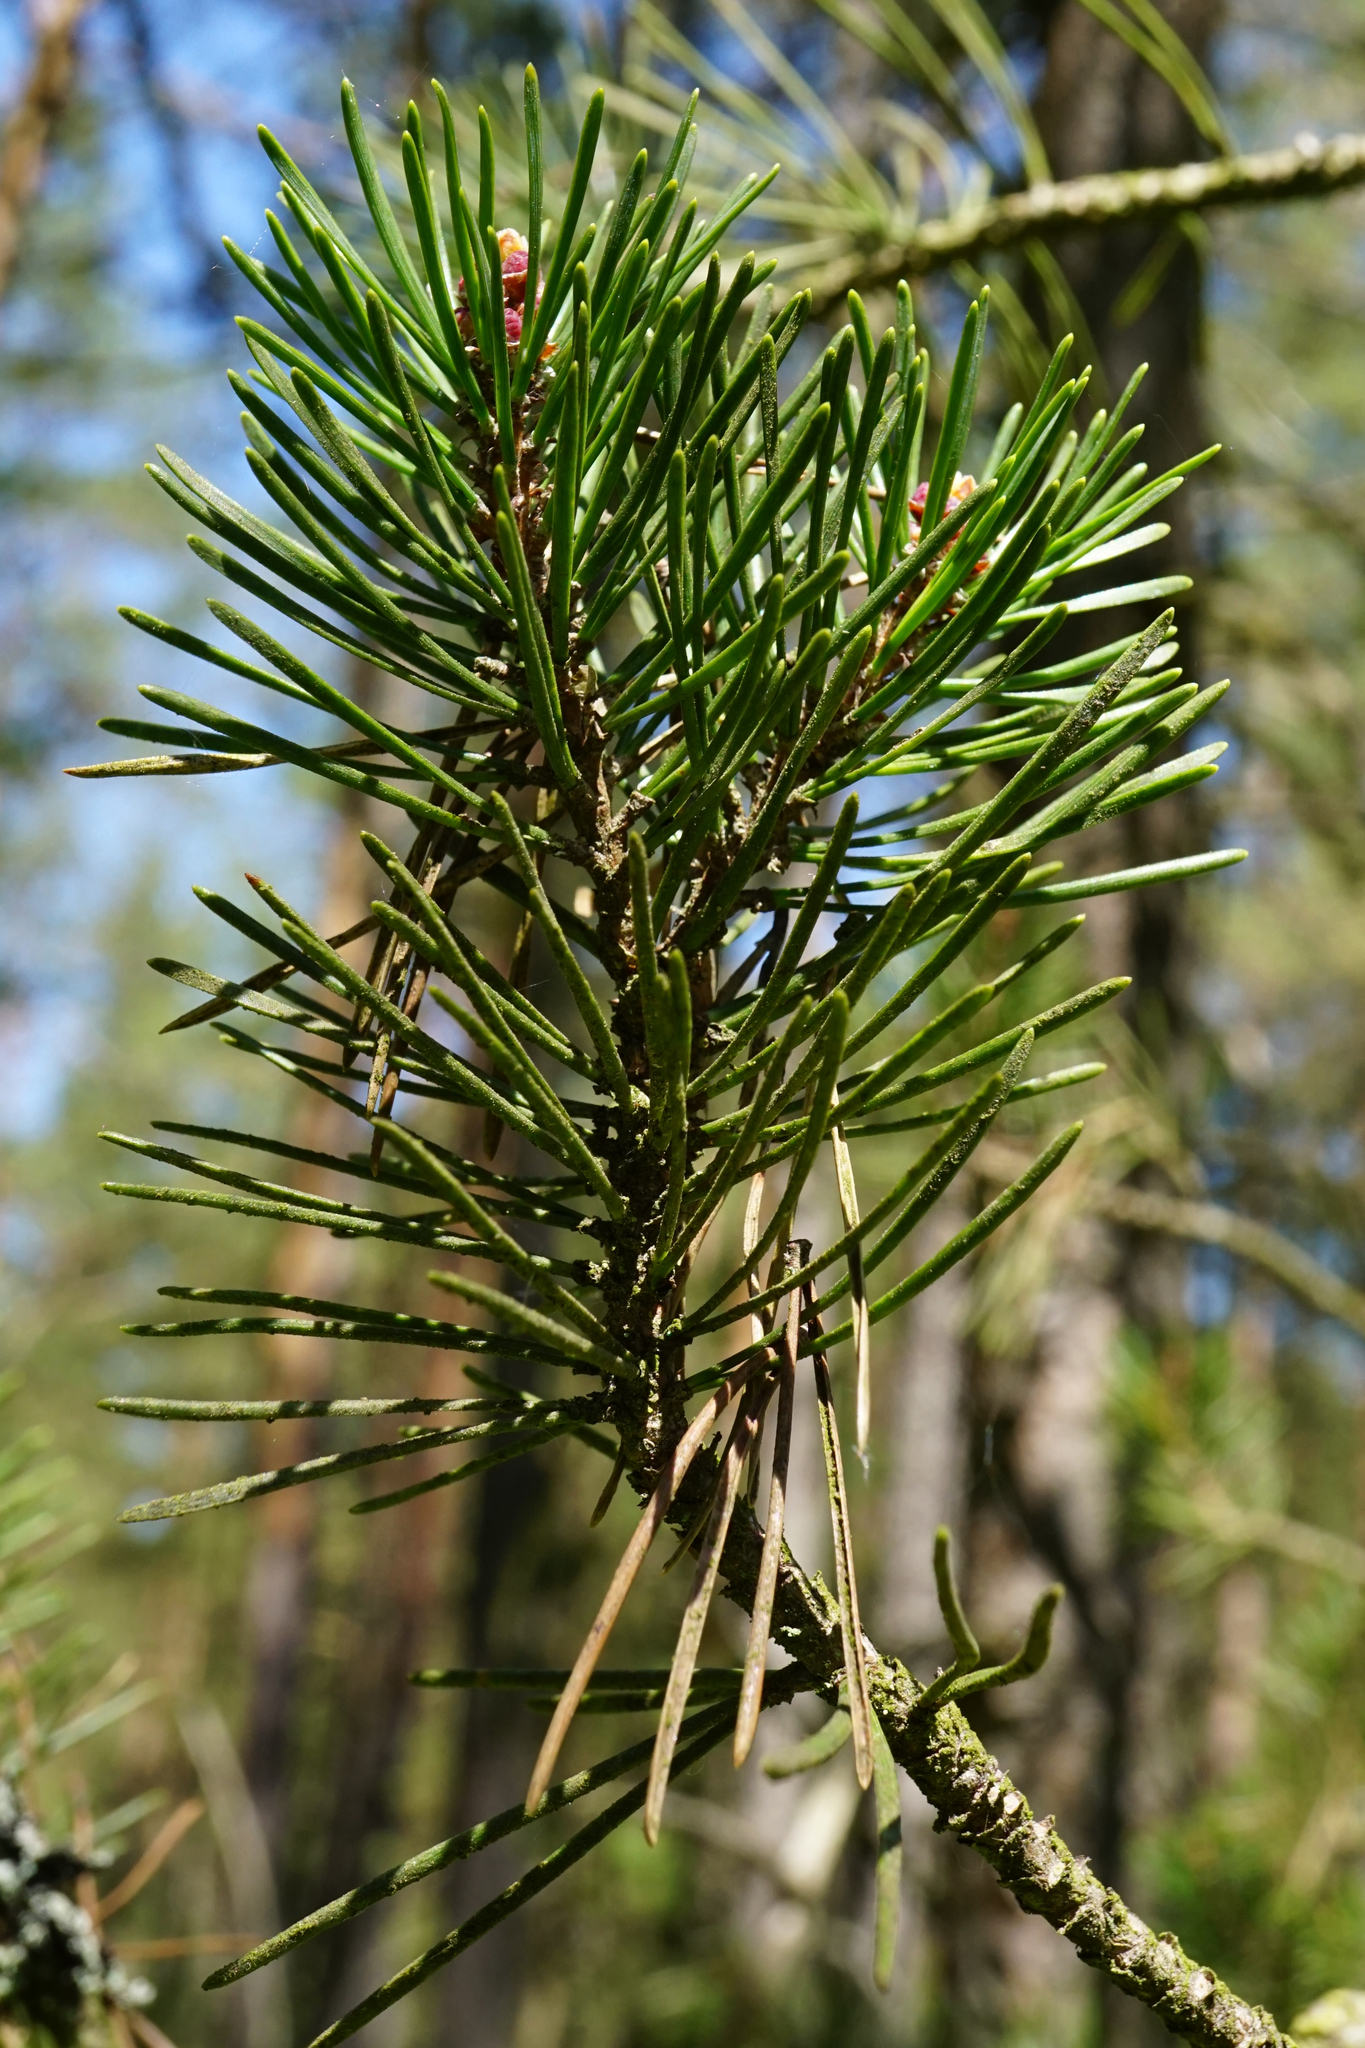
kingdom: Plantae
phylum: Tracheophyta
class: Pinopsida
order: Pinales
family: Pinaceae
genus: Pinus
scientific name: Pinus uncinata
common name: Mountain pine
